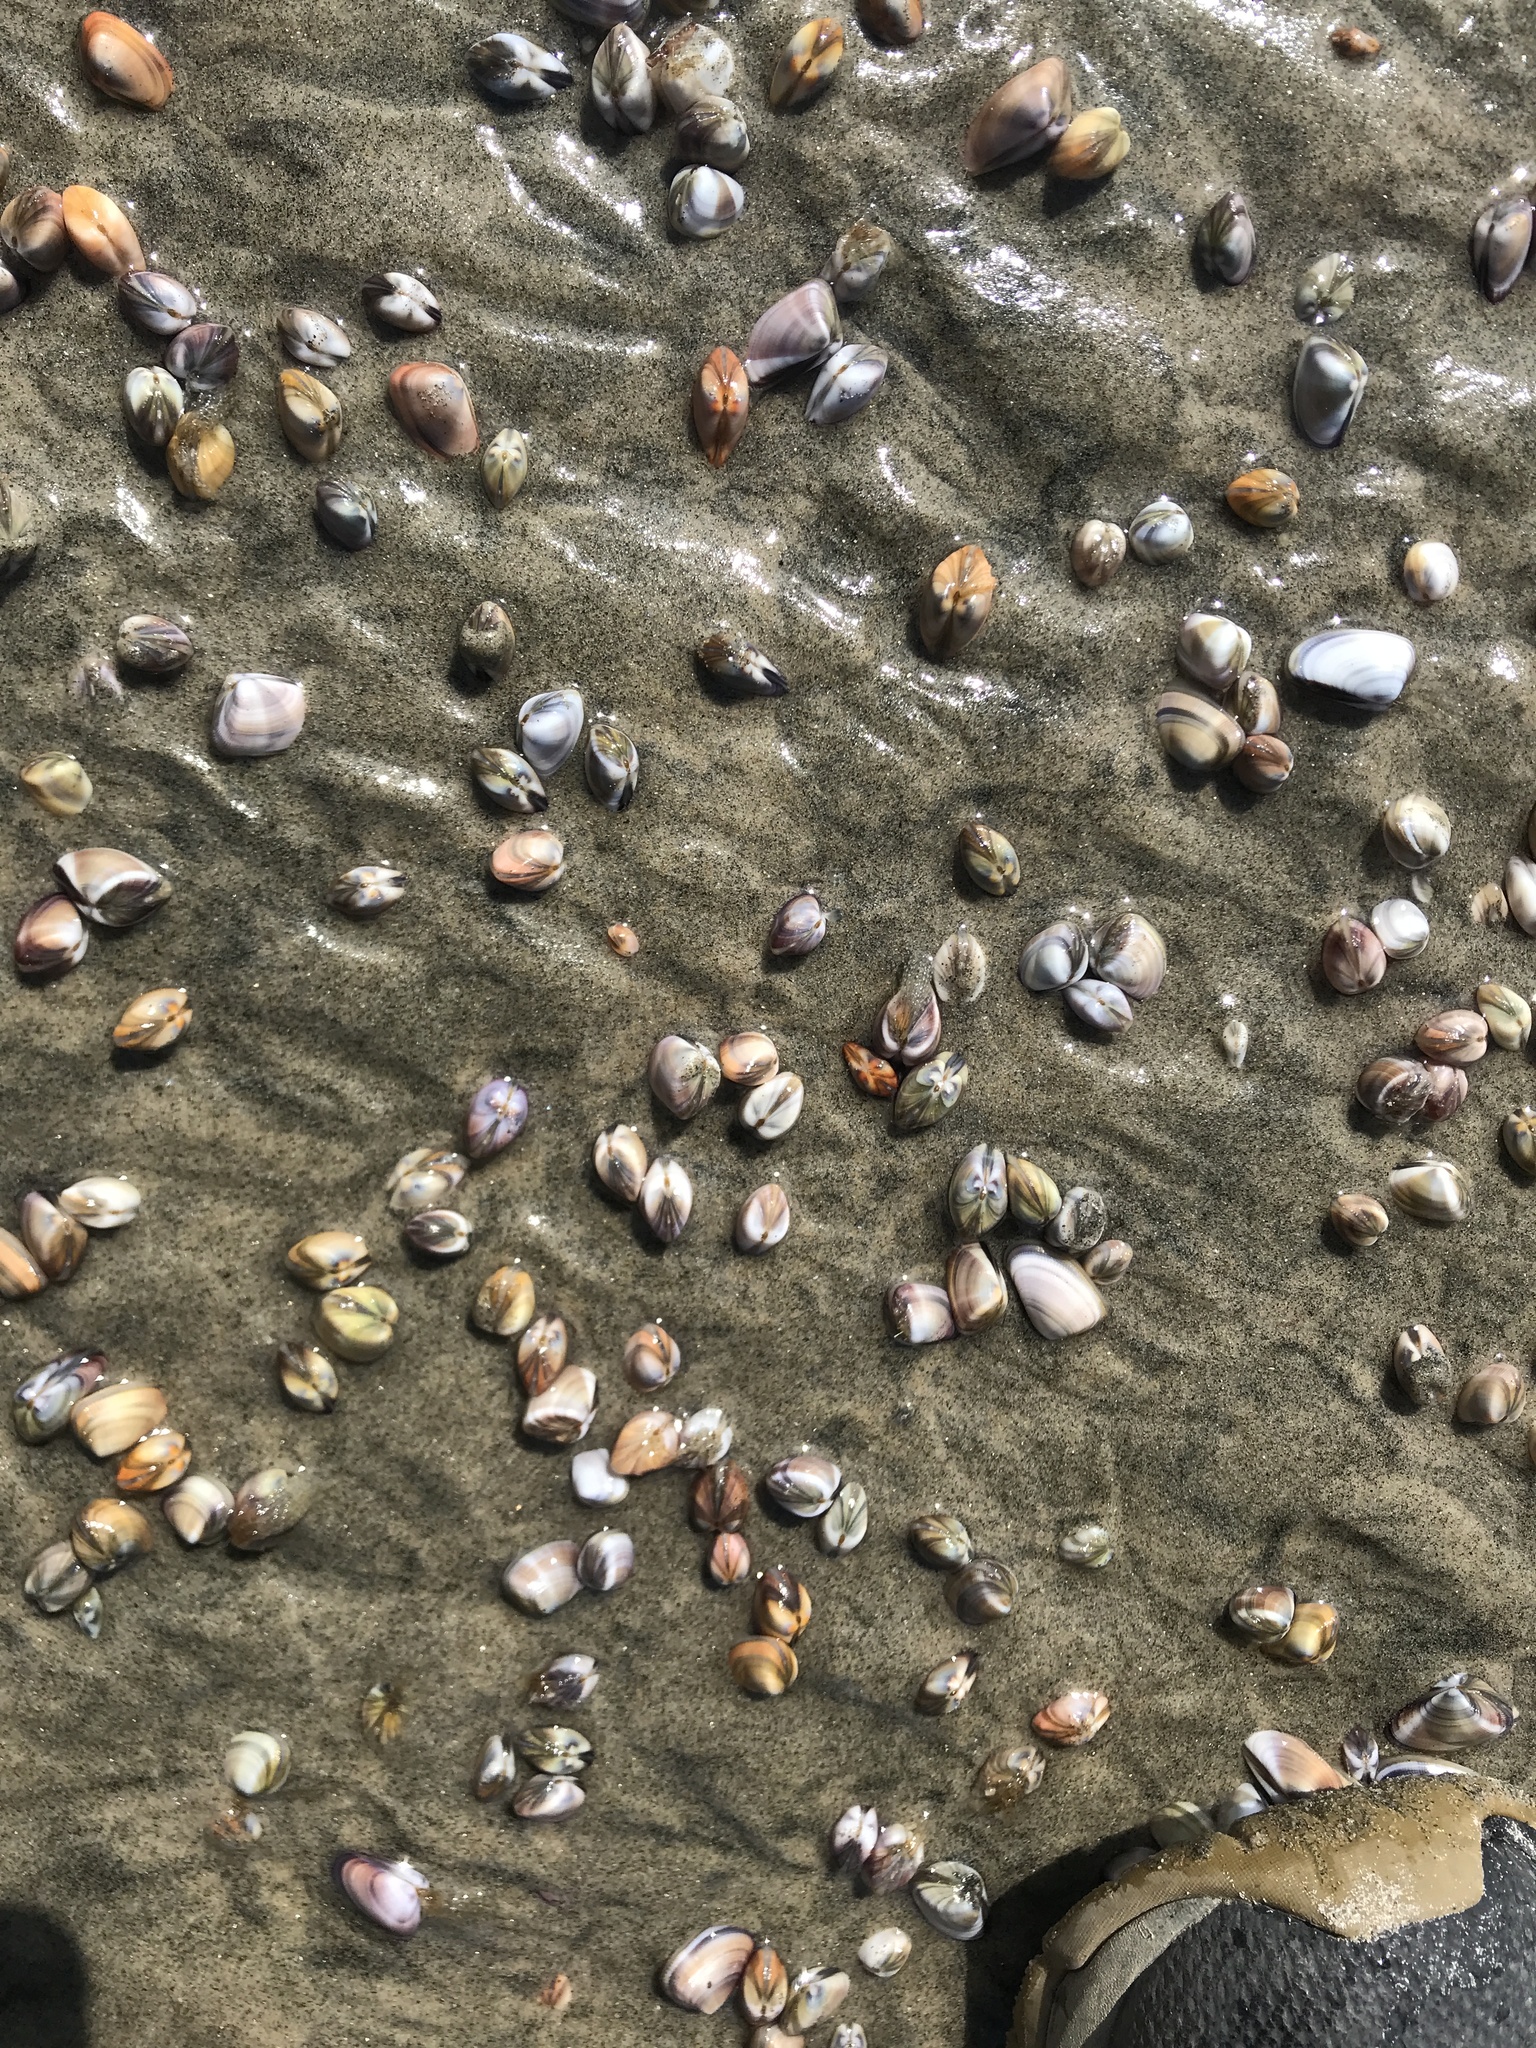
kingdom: Animalia
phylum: Mollusca
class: Bivalvia
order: Cardiida
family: Donacidae
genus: Donax
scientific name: Donax gouldii
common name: Gould beanclam
